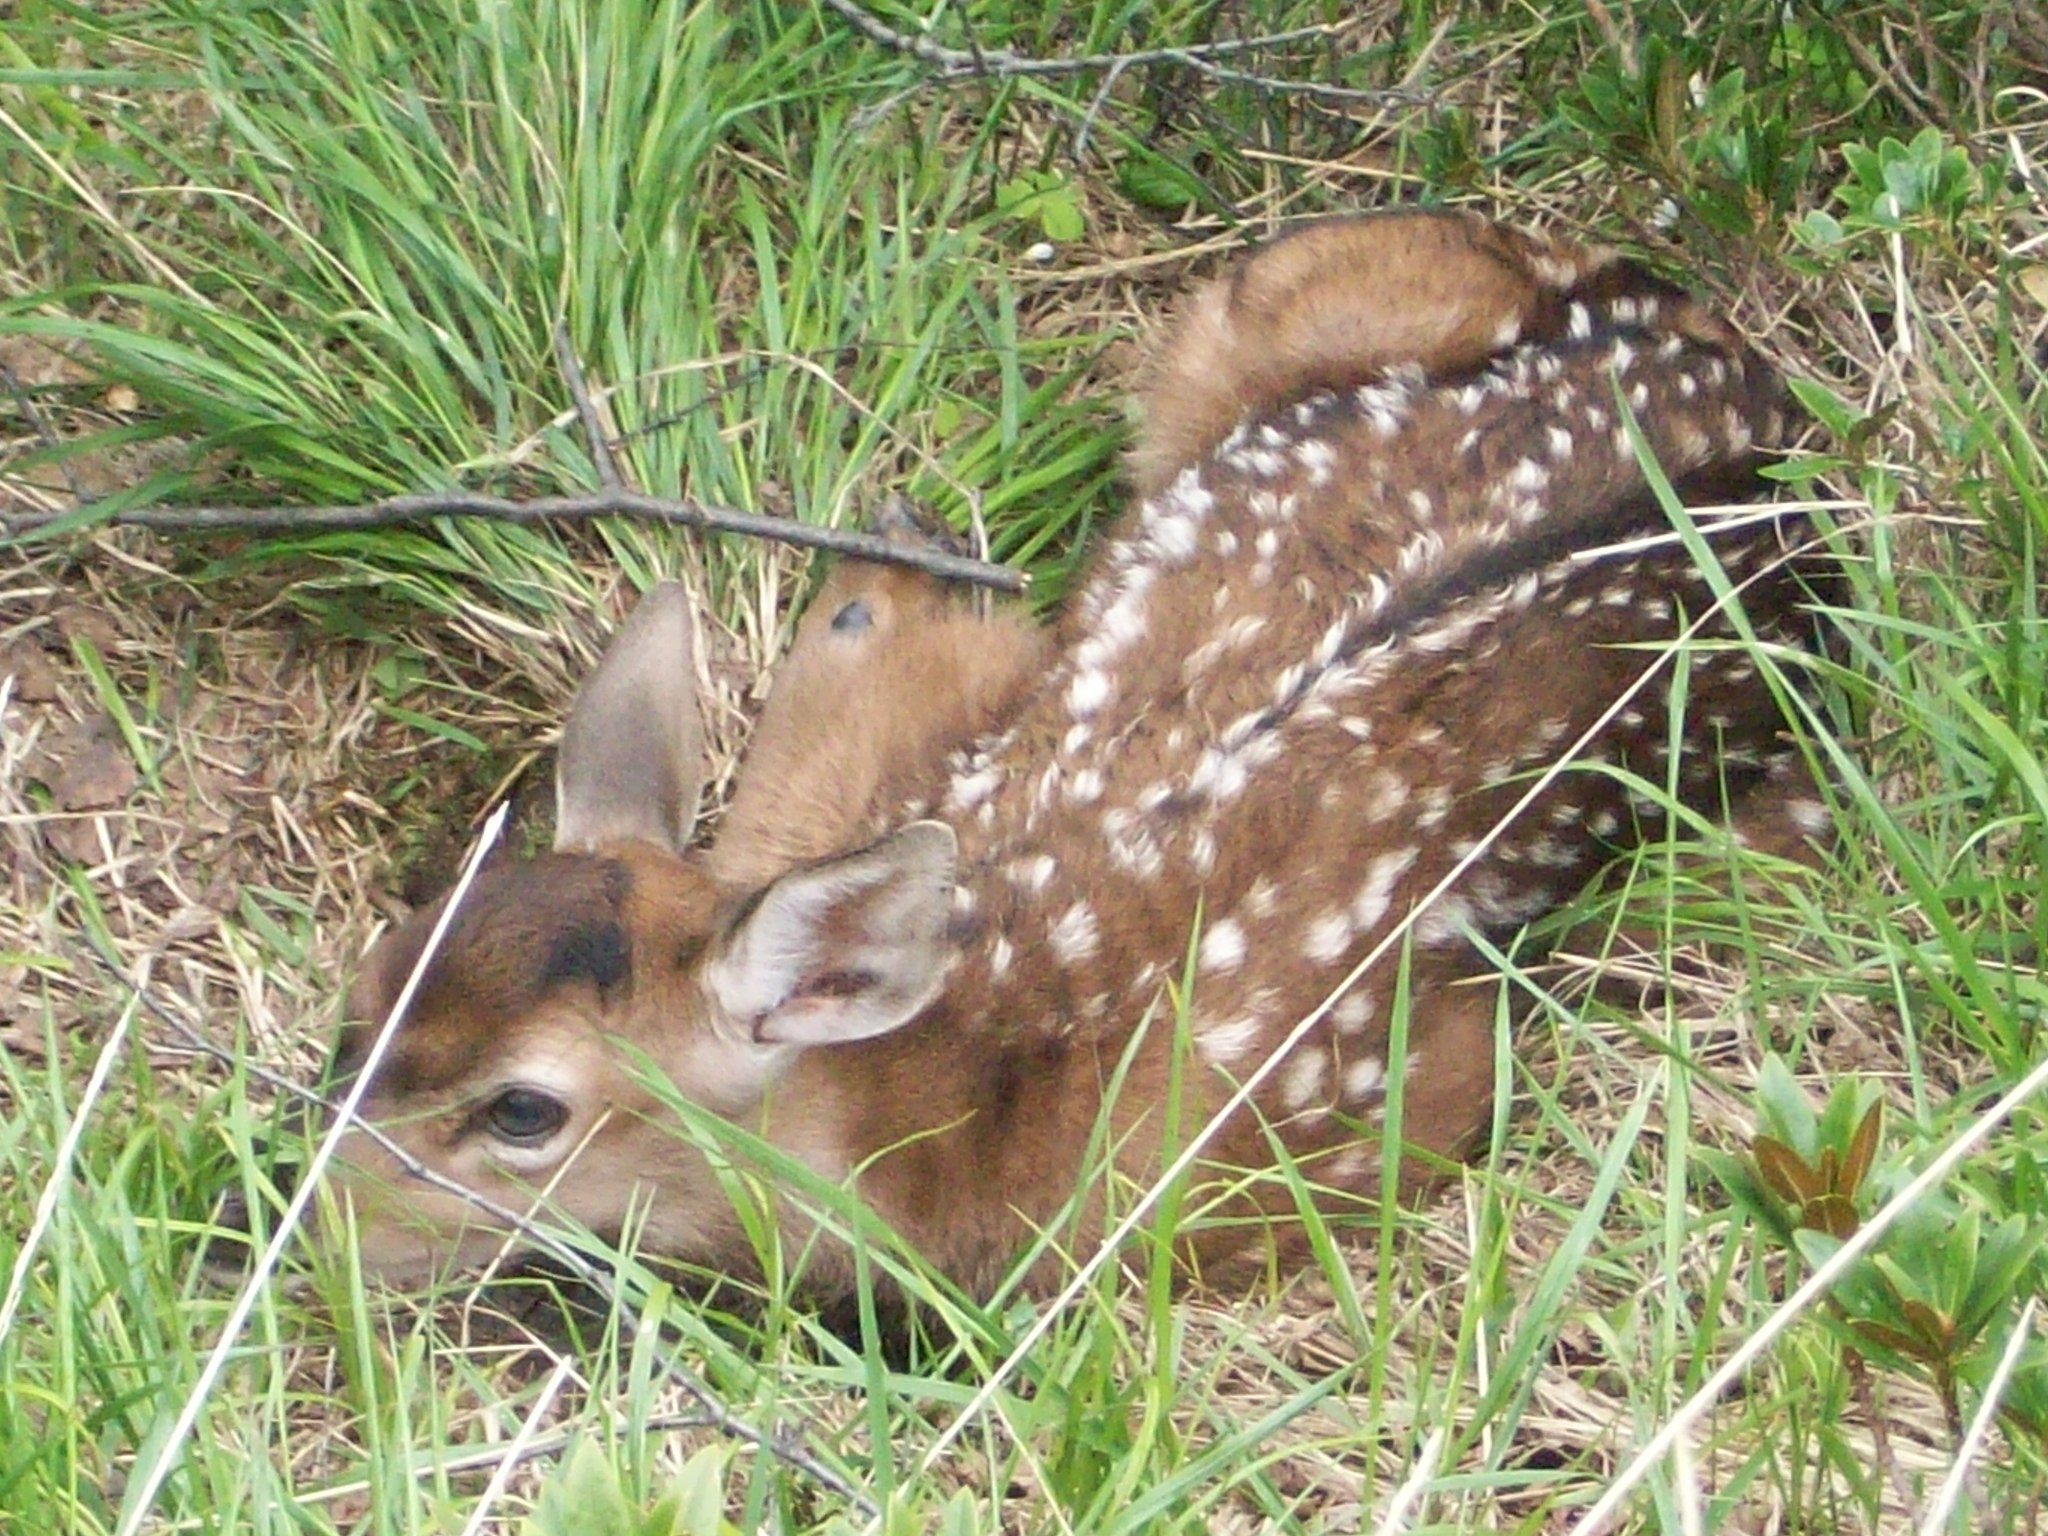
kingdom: Animalia
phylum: Chordata
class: Mammalia
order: Artiodactyla
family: Cervidae
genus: Cervus
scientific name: Cervus elaphus
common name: Red deer
